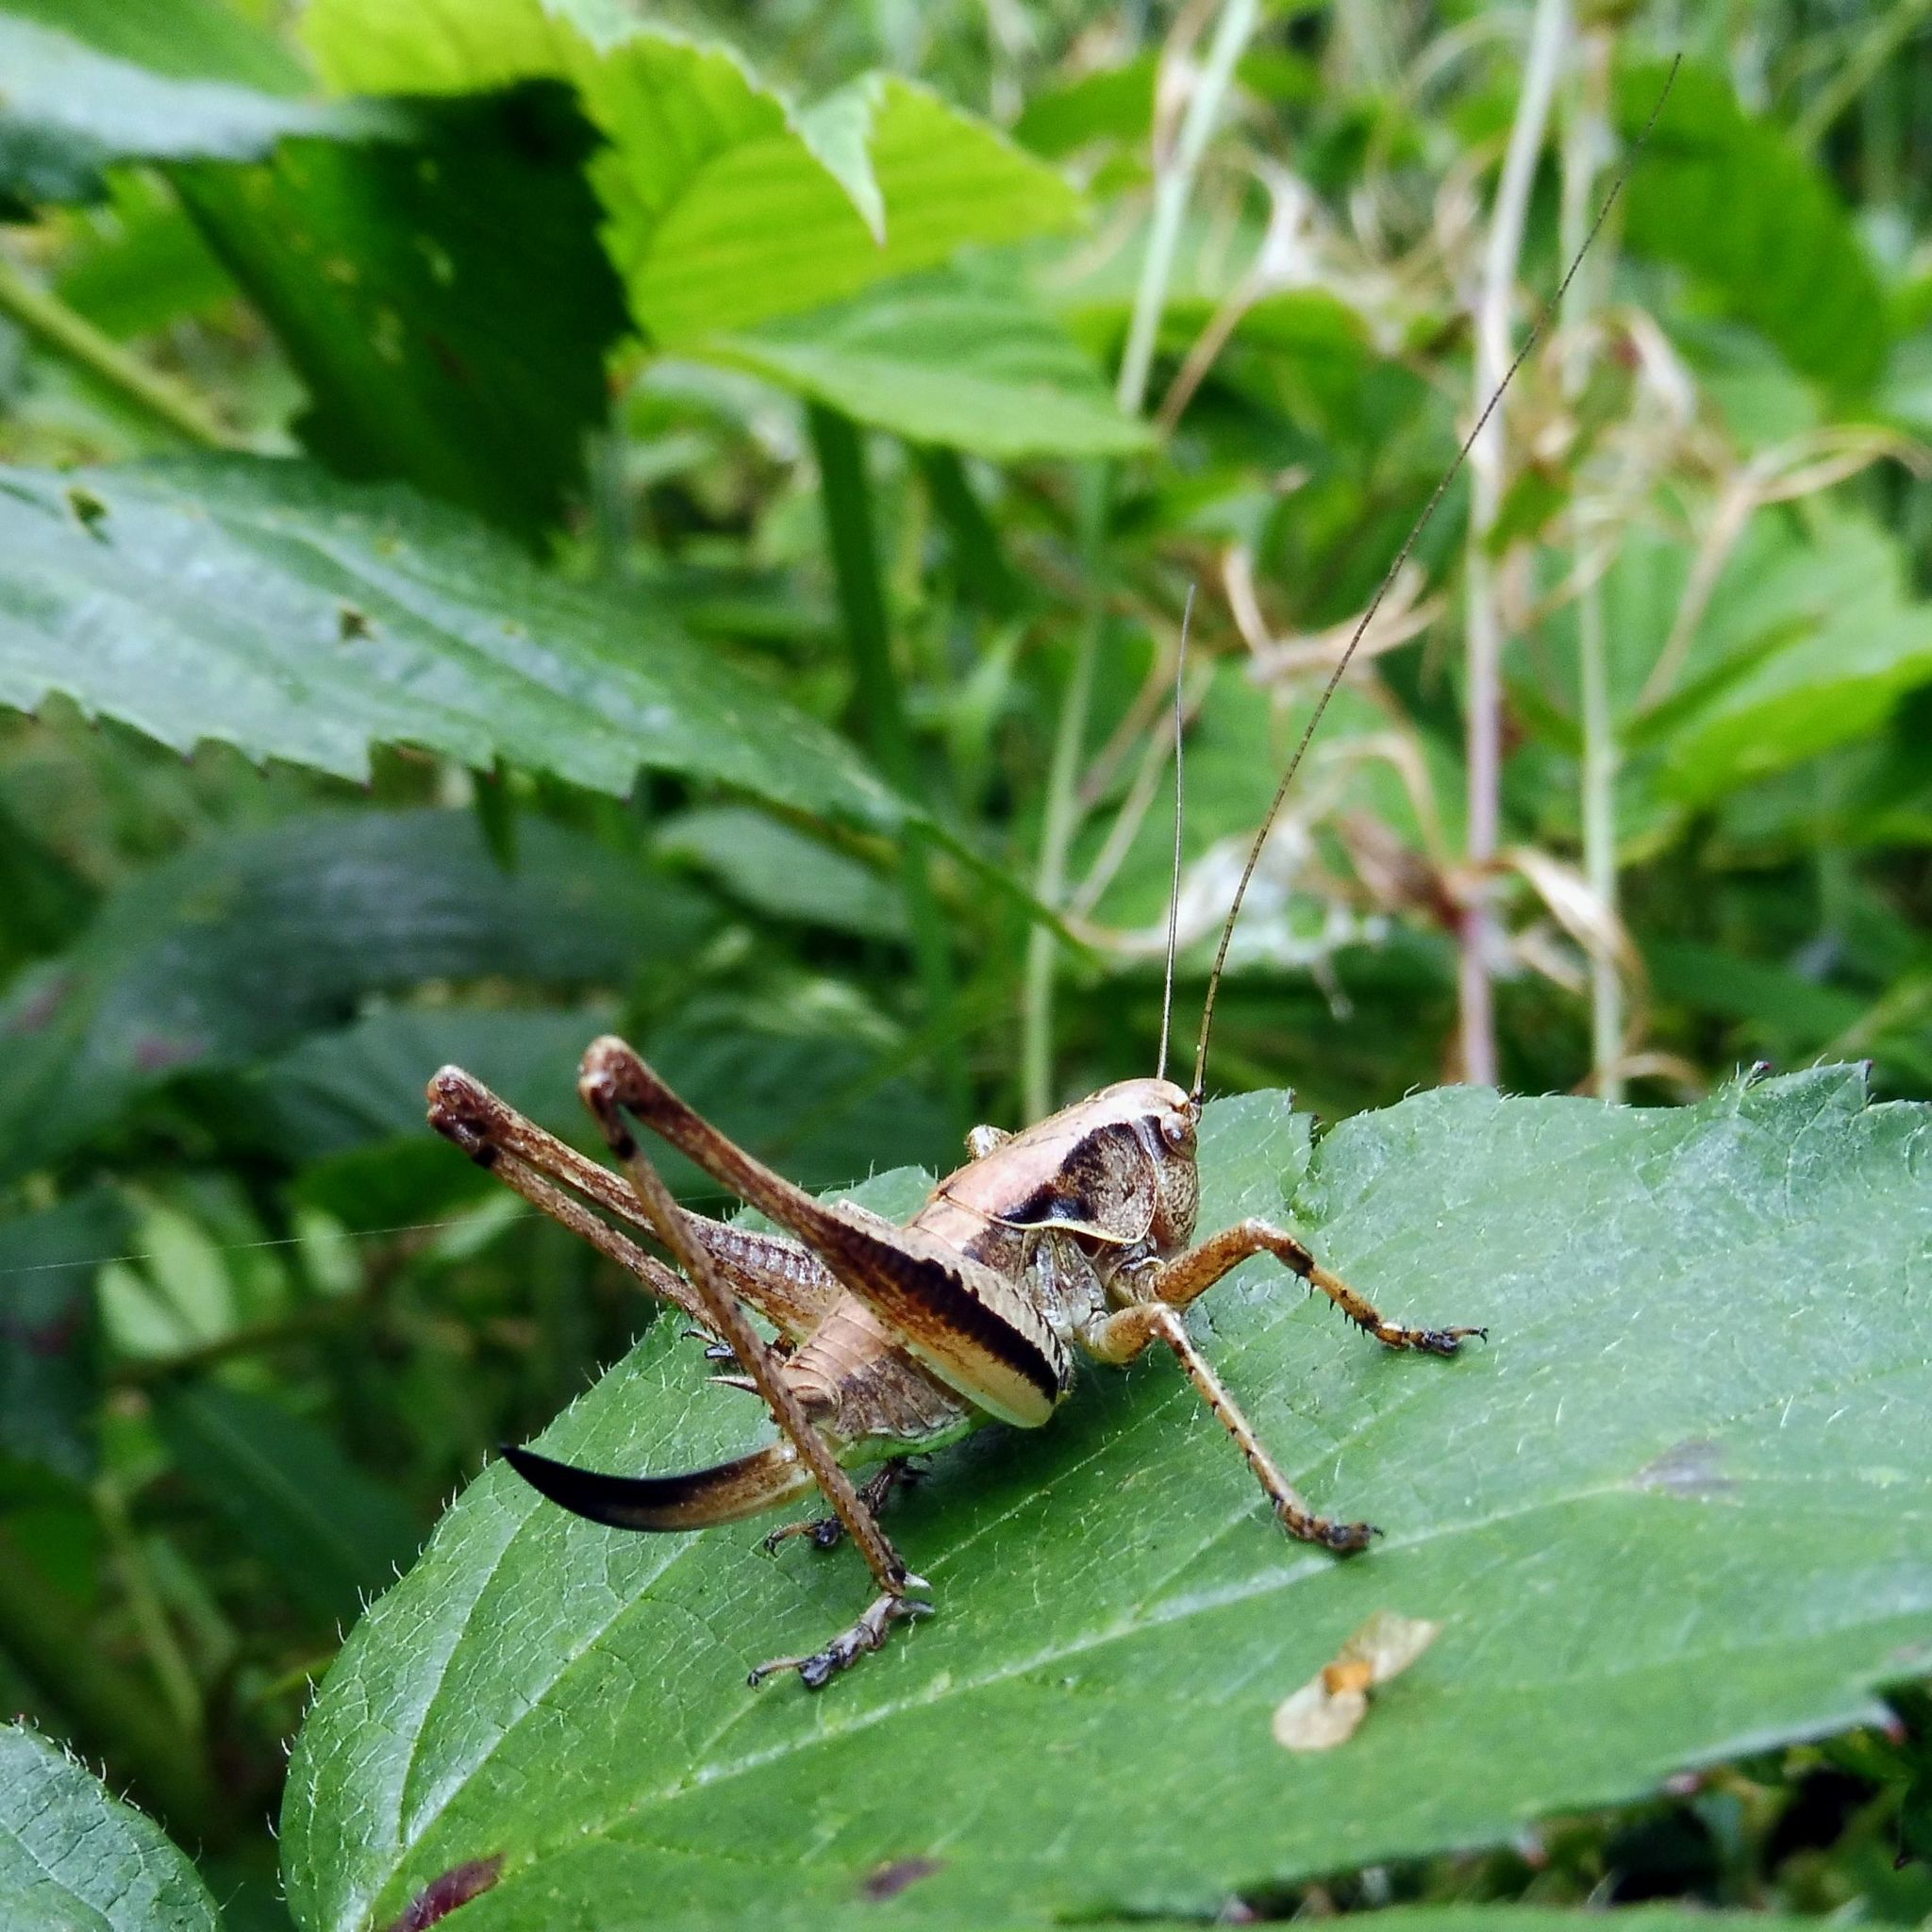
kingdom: Animalia
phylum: Arthropoda
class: Insecta
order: Orthoptera
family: Tettigoniidae
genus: Pholidoptera
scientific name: Pholidoptera griseoaptera
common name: Dark bush-cricket
